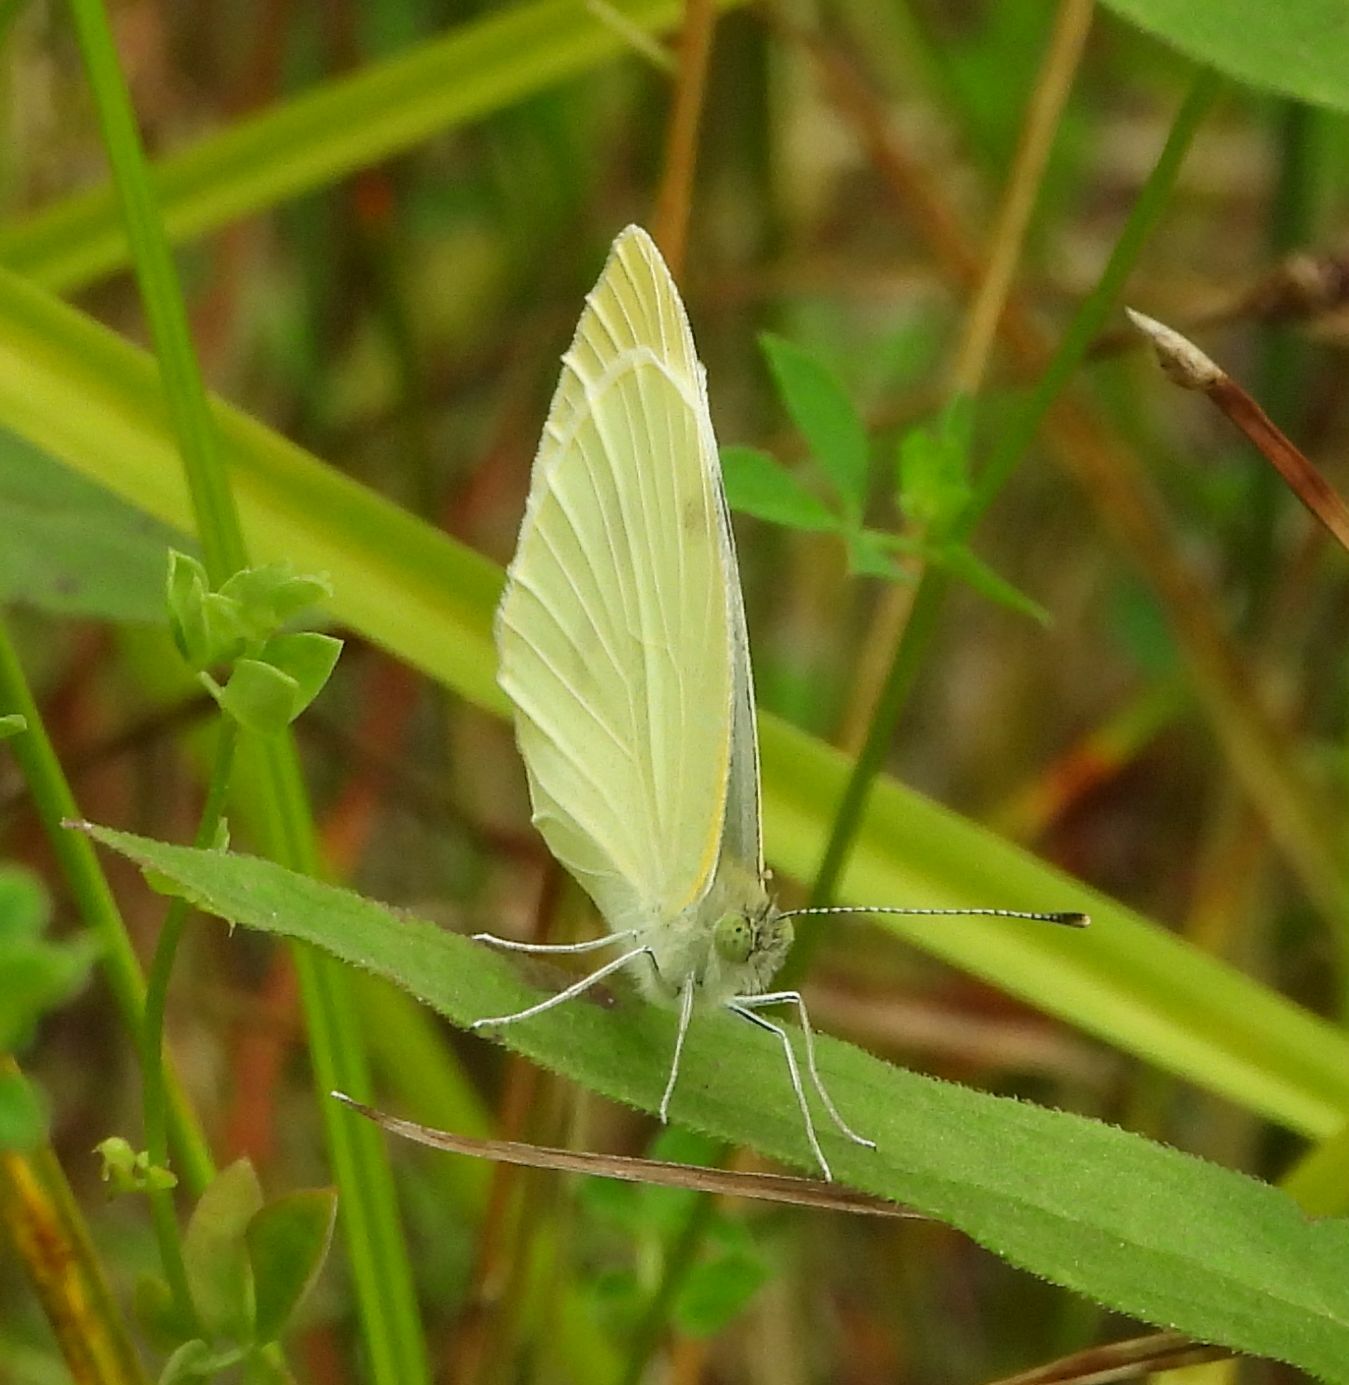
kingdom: Animalia
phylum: Arthropoda
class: Insecta
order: Lepidoptera
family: Pieridae
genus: Pieris
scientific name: Pieris rapae
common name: Small white
